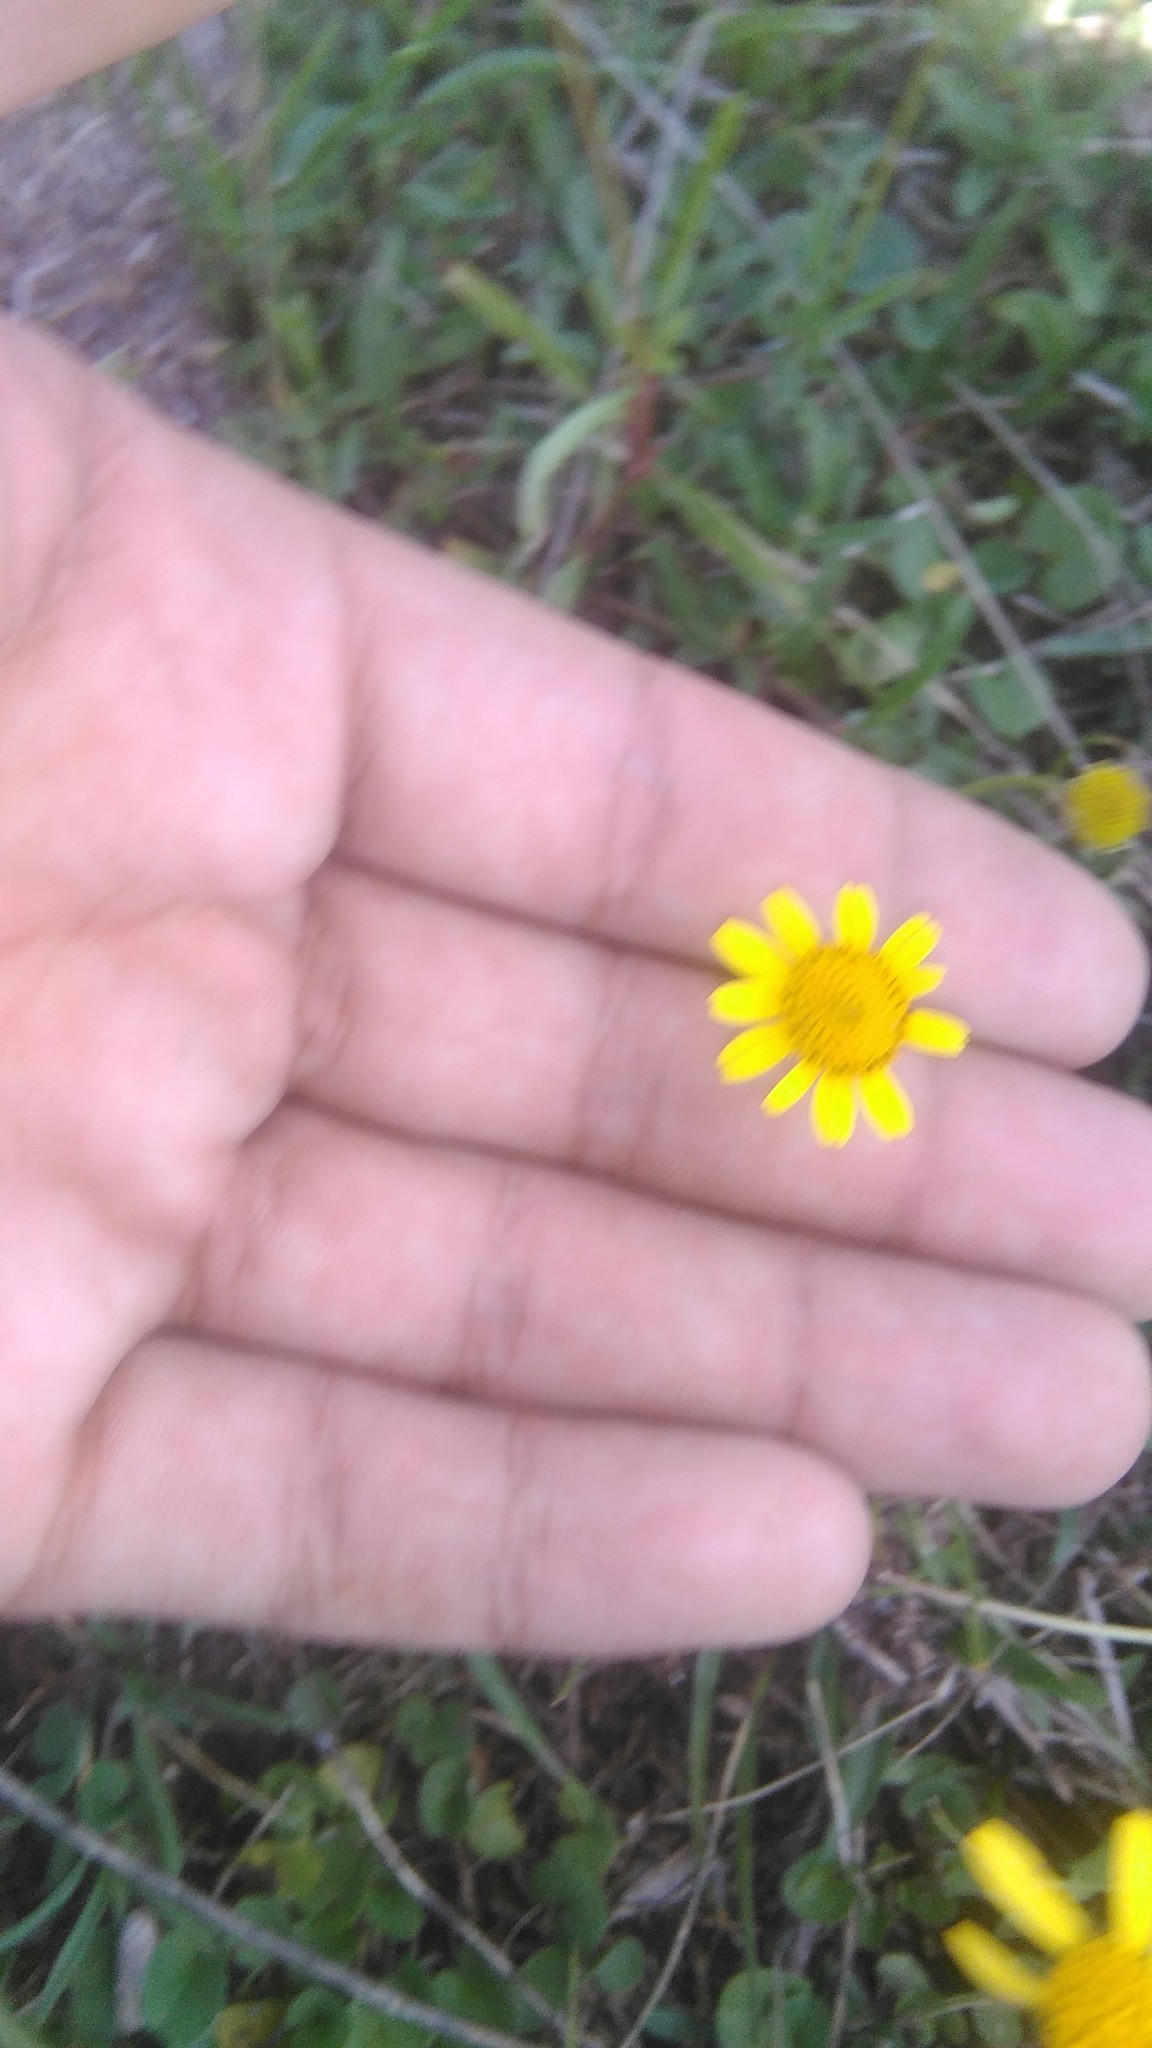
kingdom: Plantae
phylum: Tracheophyta
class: Magnoliopsida
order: Asterales
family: Asteraceae
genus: Acmella
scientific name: Acmella decumbens
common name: Creeping spotflower
